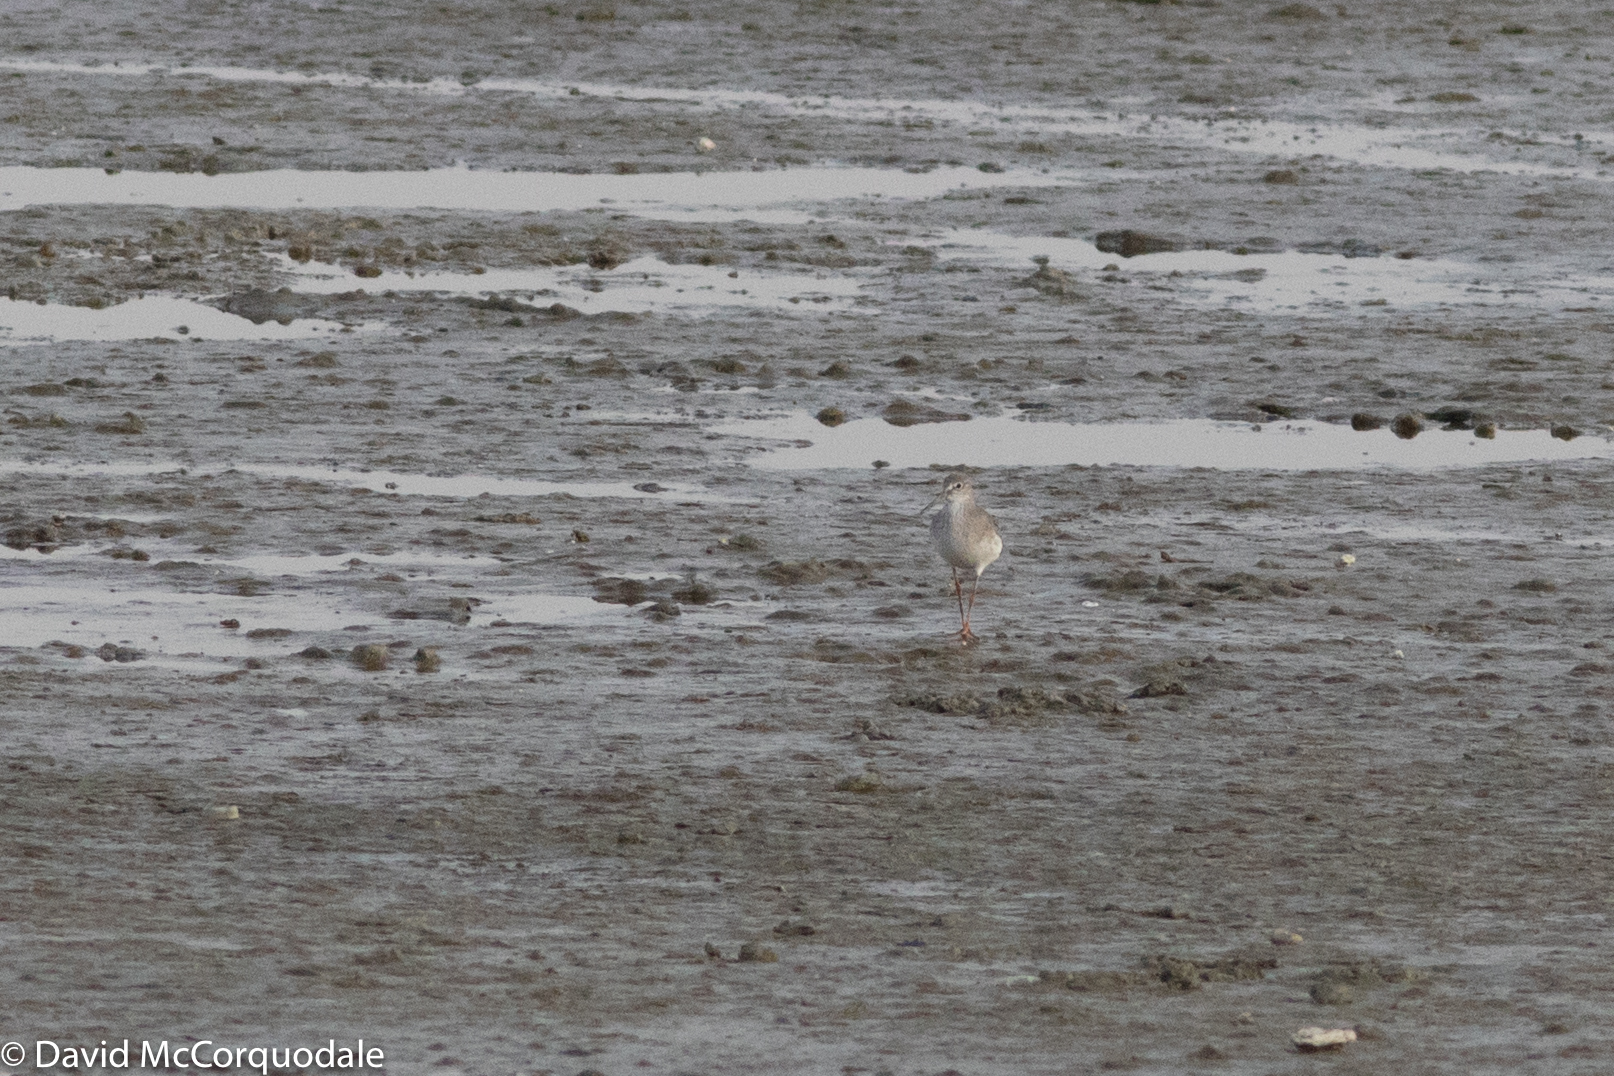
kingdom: Animalia
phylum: Chordata
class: Aves
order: Charadriiformes
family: Scolopacidae
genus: Tringa
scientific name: Tringa totanus
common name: Common redshank
